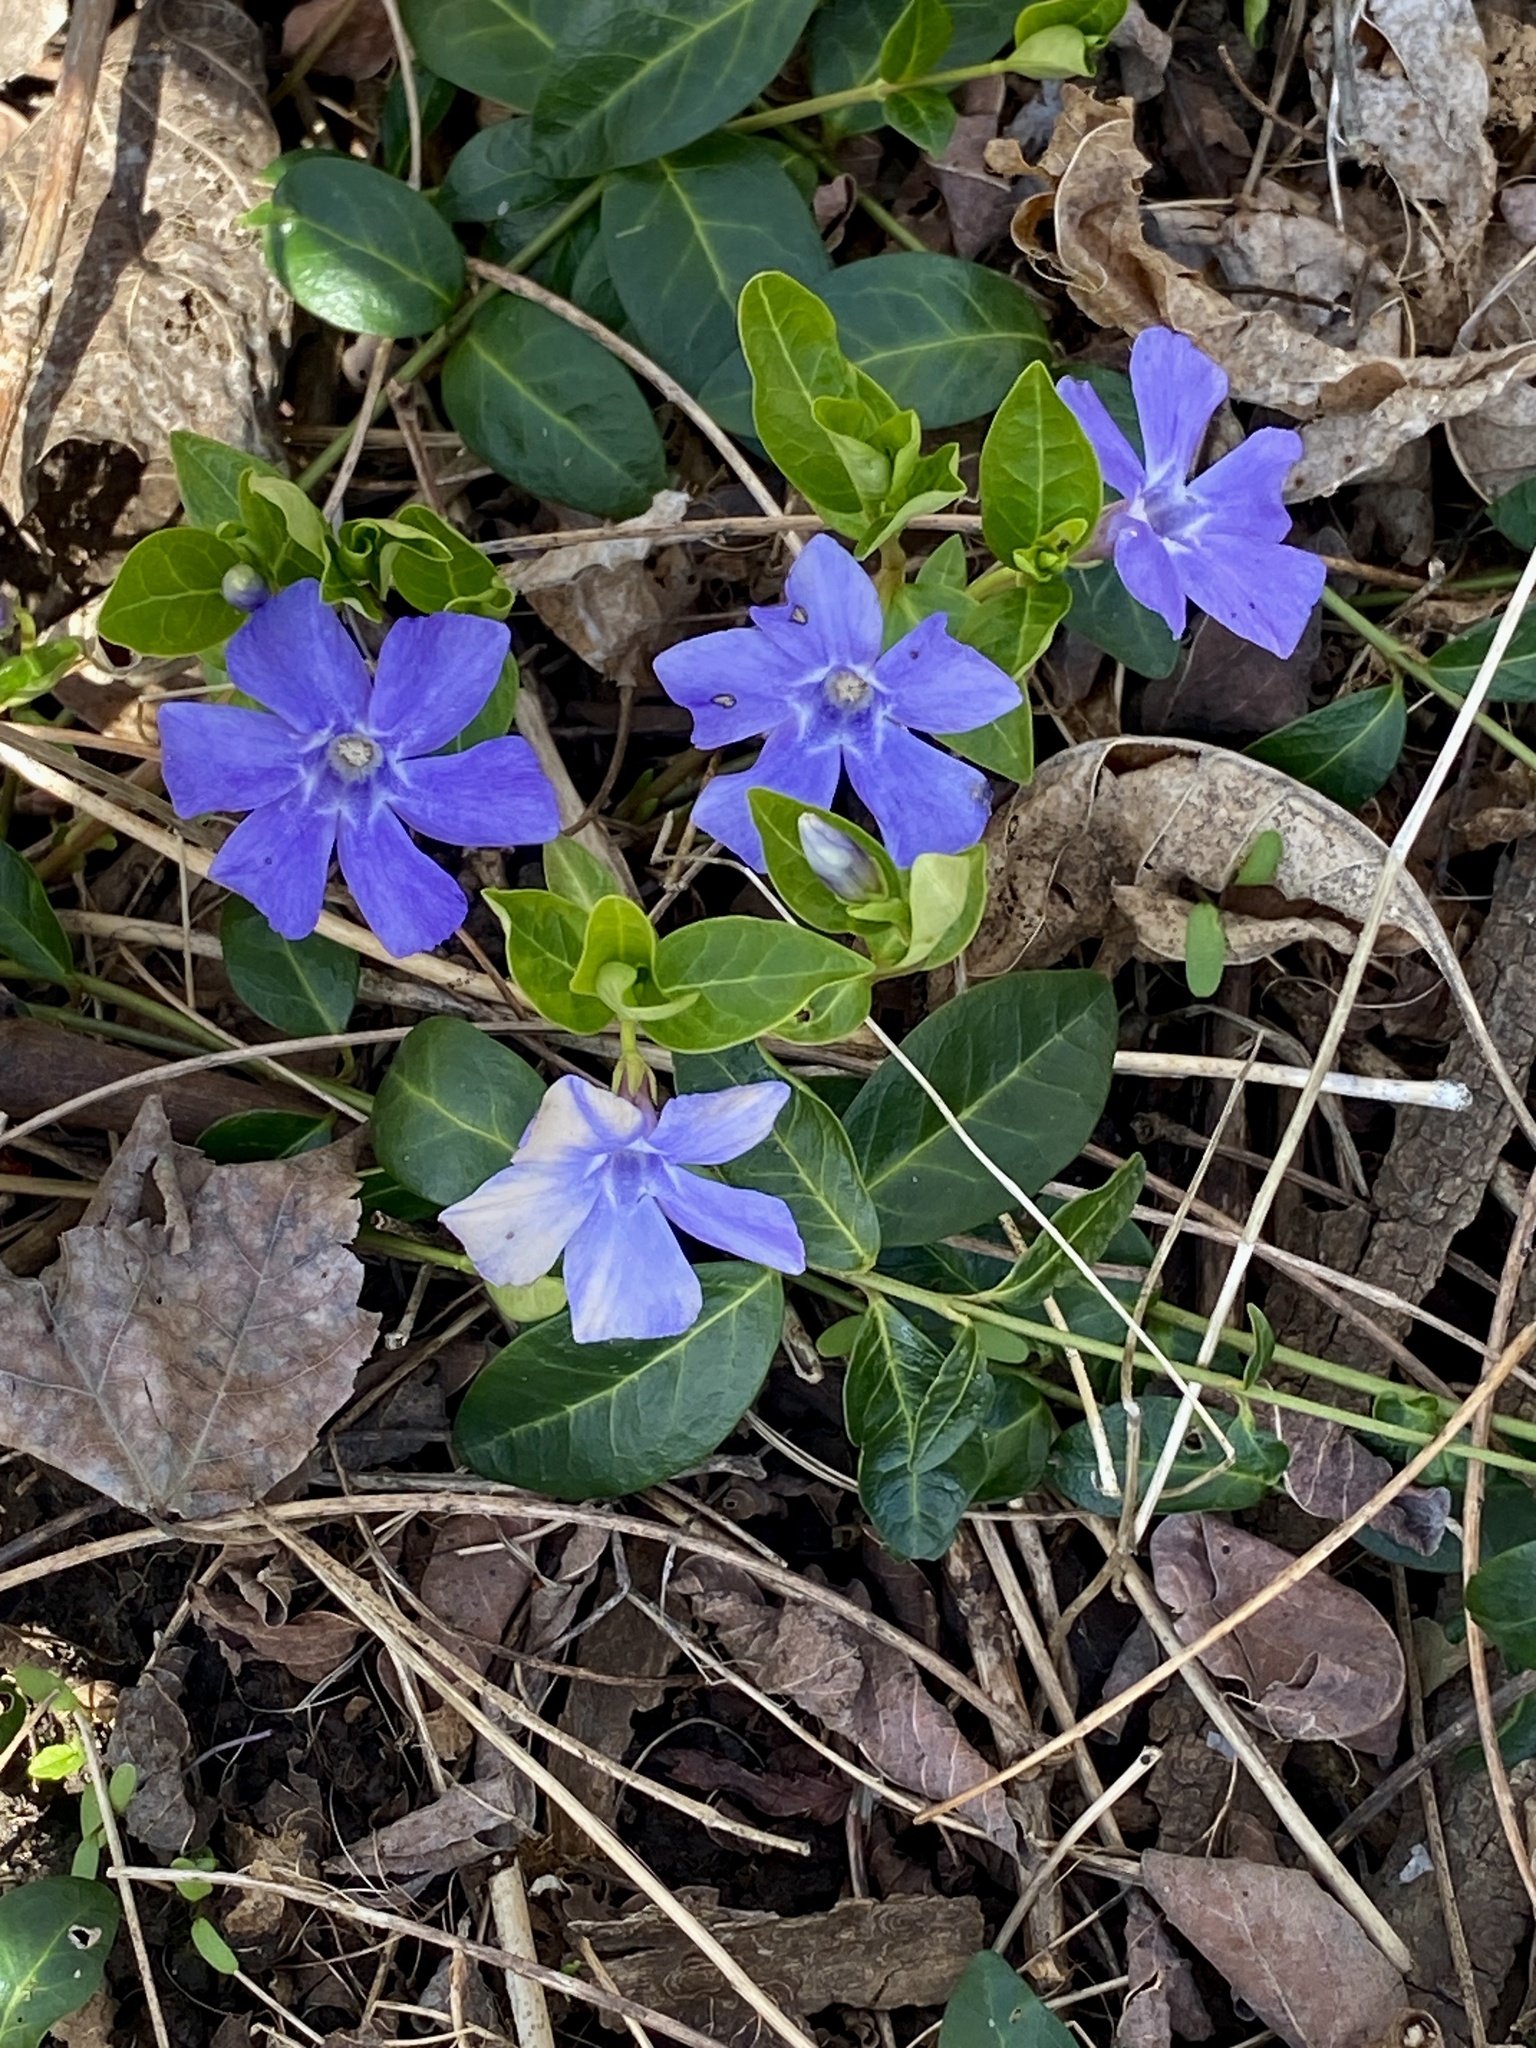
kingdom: Plantae
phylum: Tracheophyta
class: Magnoliopsida
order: Gentianales
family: Apocynaceae
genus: Vinca
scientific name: Vinca minor
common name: Lesser periwinkle
